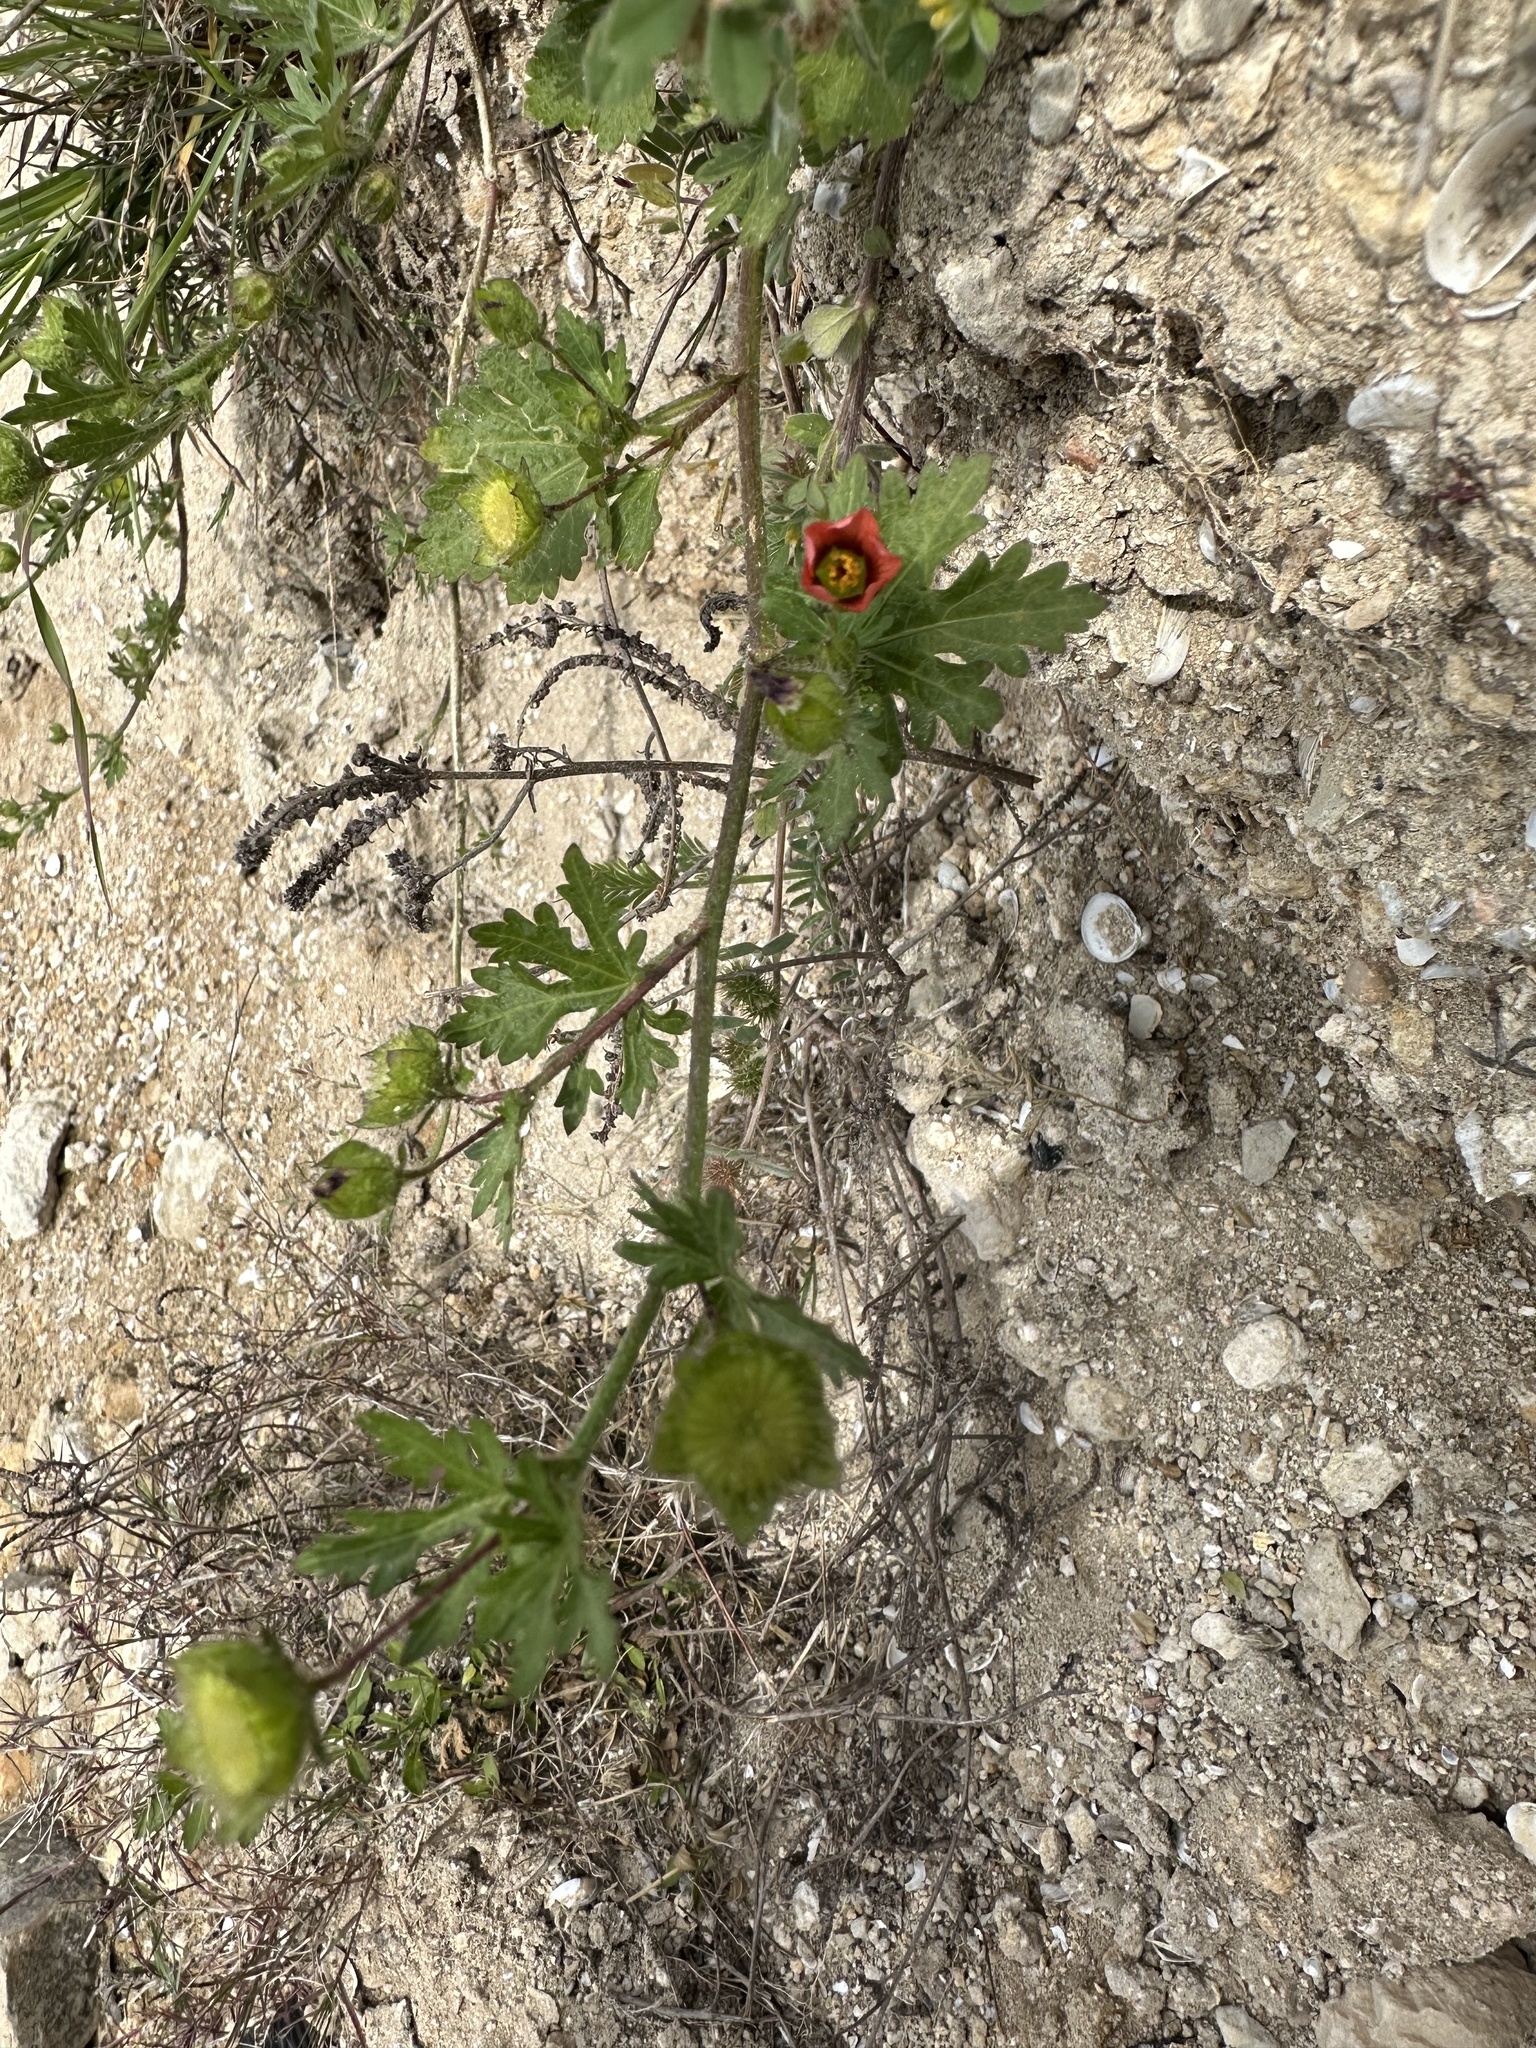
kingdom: Plantae
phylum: Tracheophyta
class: Magnoliopsida
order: Malvales
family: Malvaceae
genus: Modiola
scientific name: Modiola caroliniana
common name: Carolina bristlemallow
